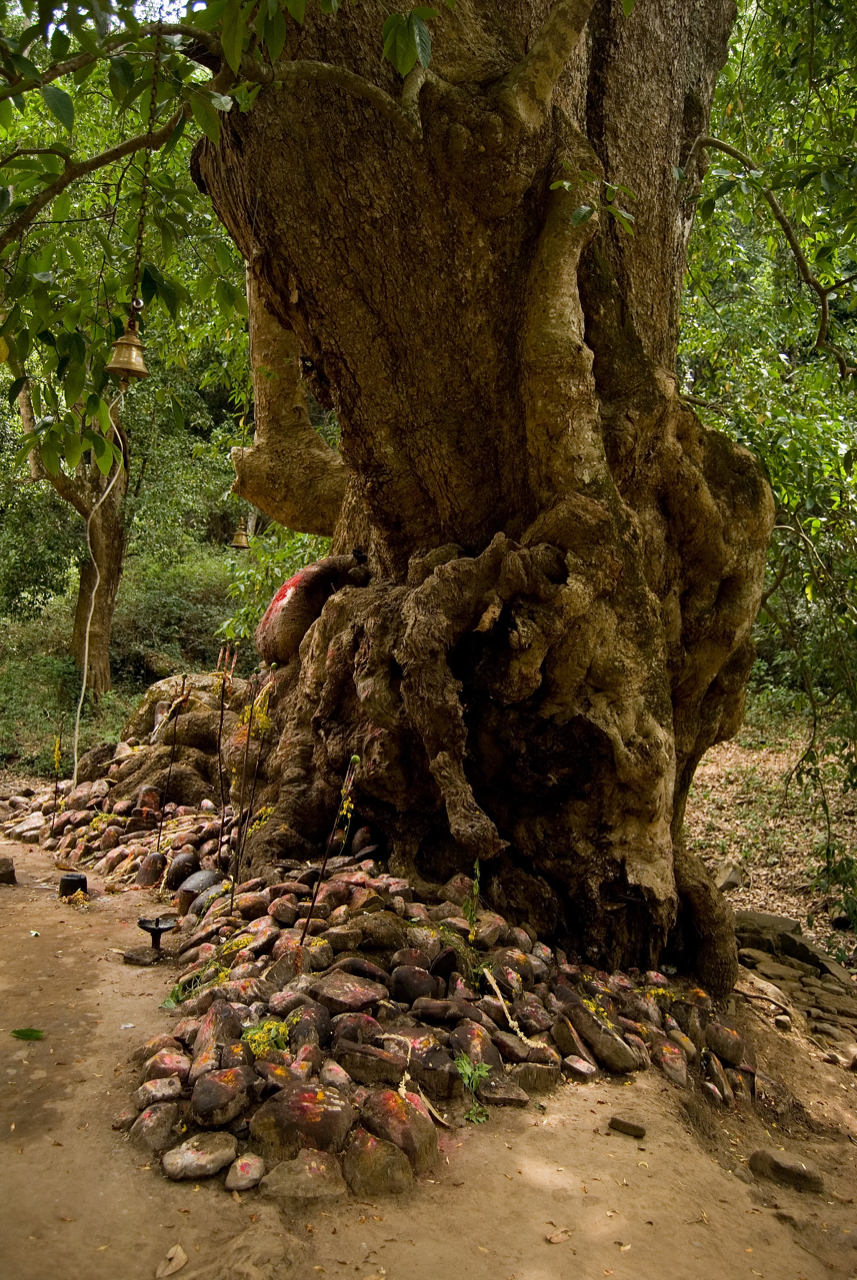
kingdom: Plantae
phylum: Tracheophyta
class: Magnoliopsida
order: Magnoliales
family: Magnoliaceae
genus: Magnolia
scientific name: Magnolia champaca
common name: Champak
